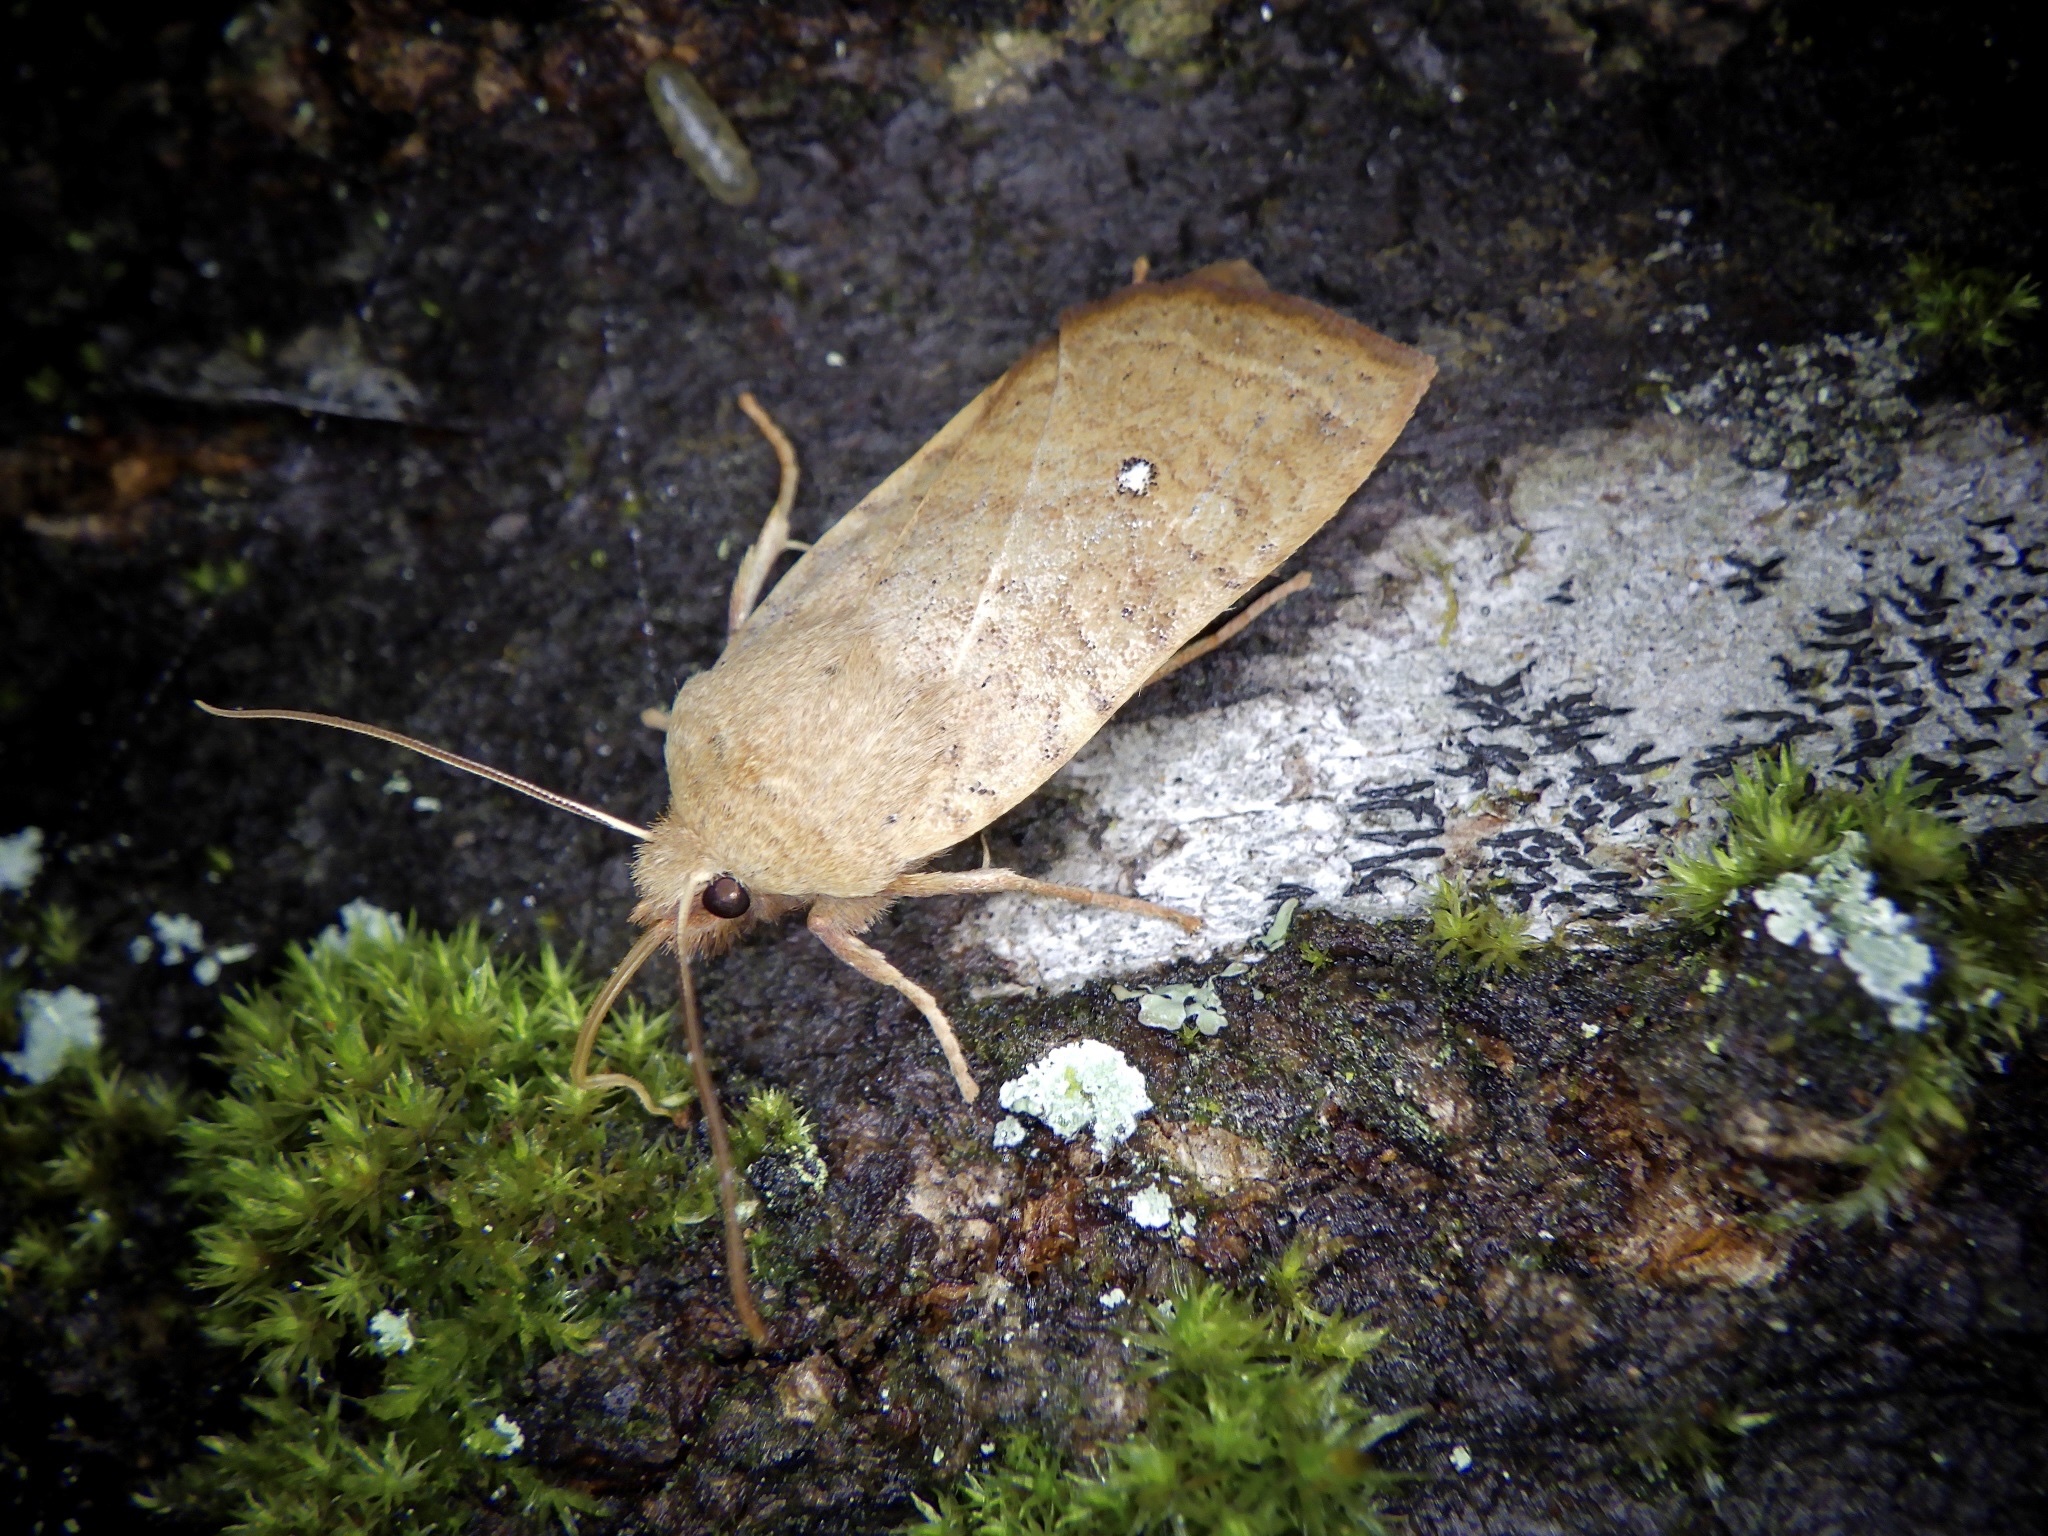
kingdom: Animalia
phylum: Arthropoda
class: Insecta
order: Lepidoptera
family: Noctuidae
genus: Conistra
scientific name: Conistra albipuncta
